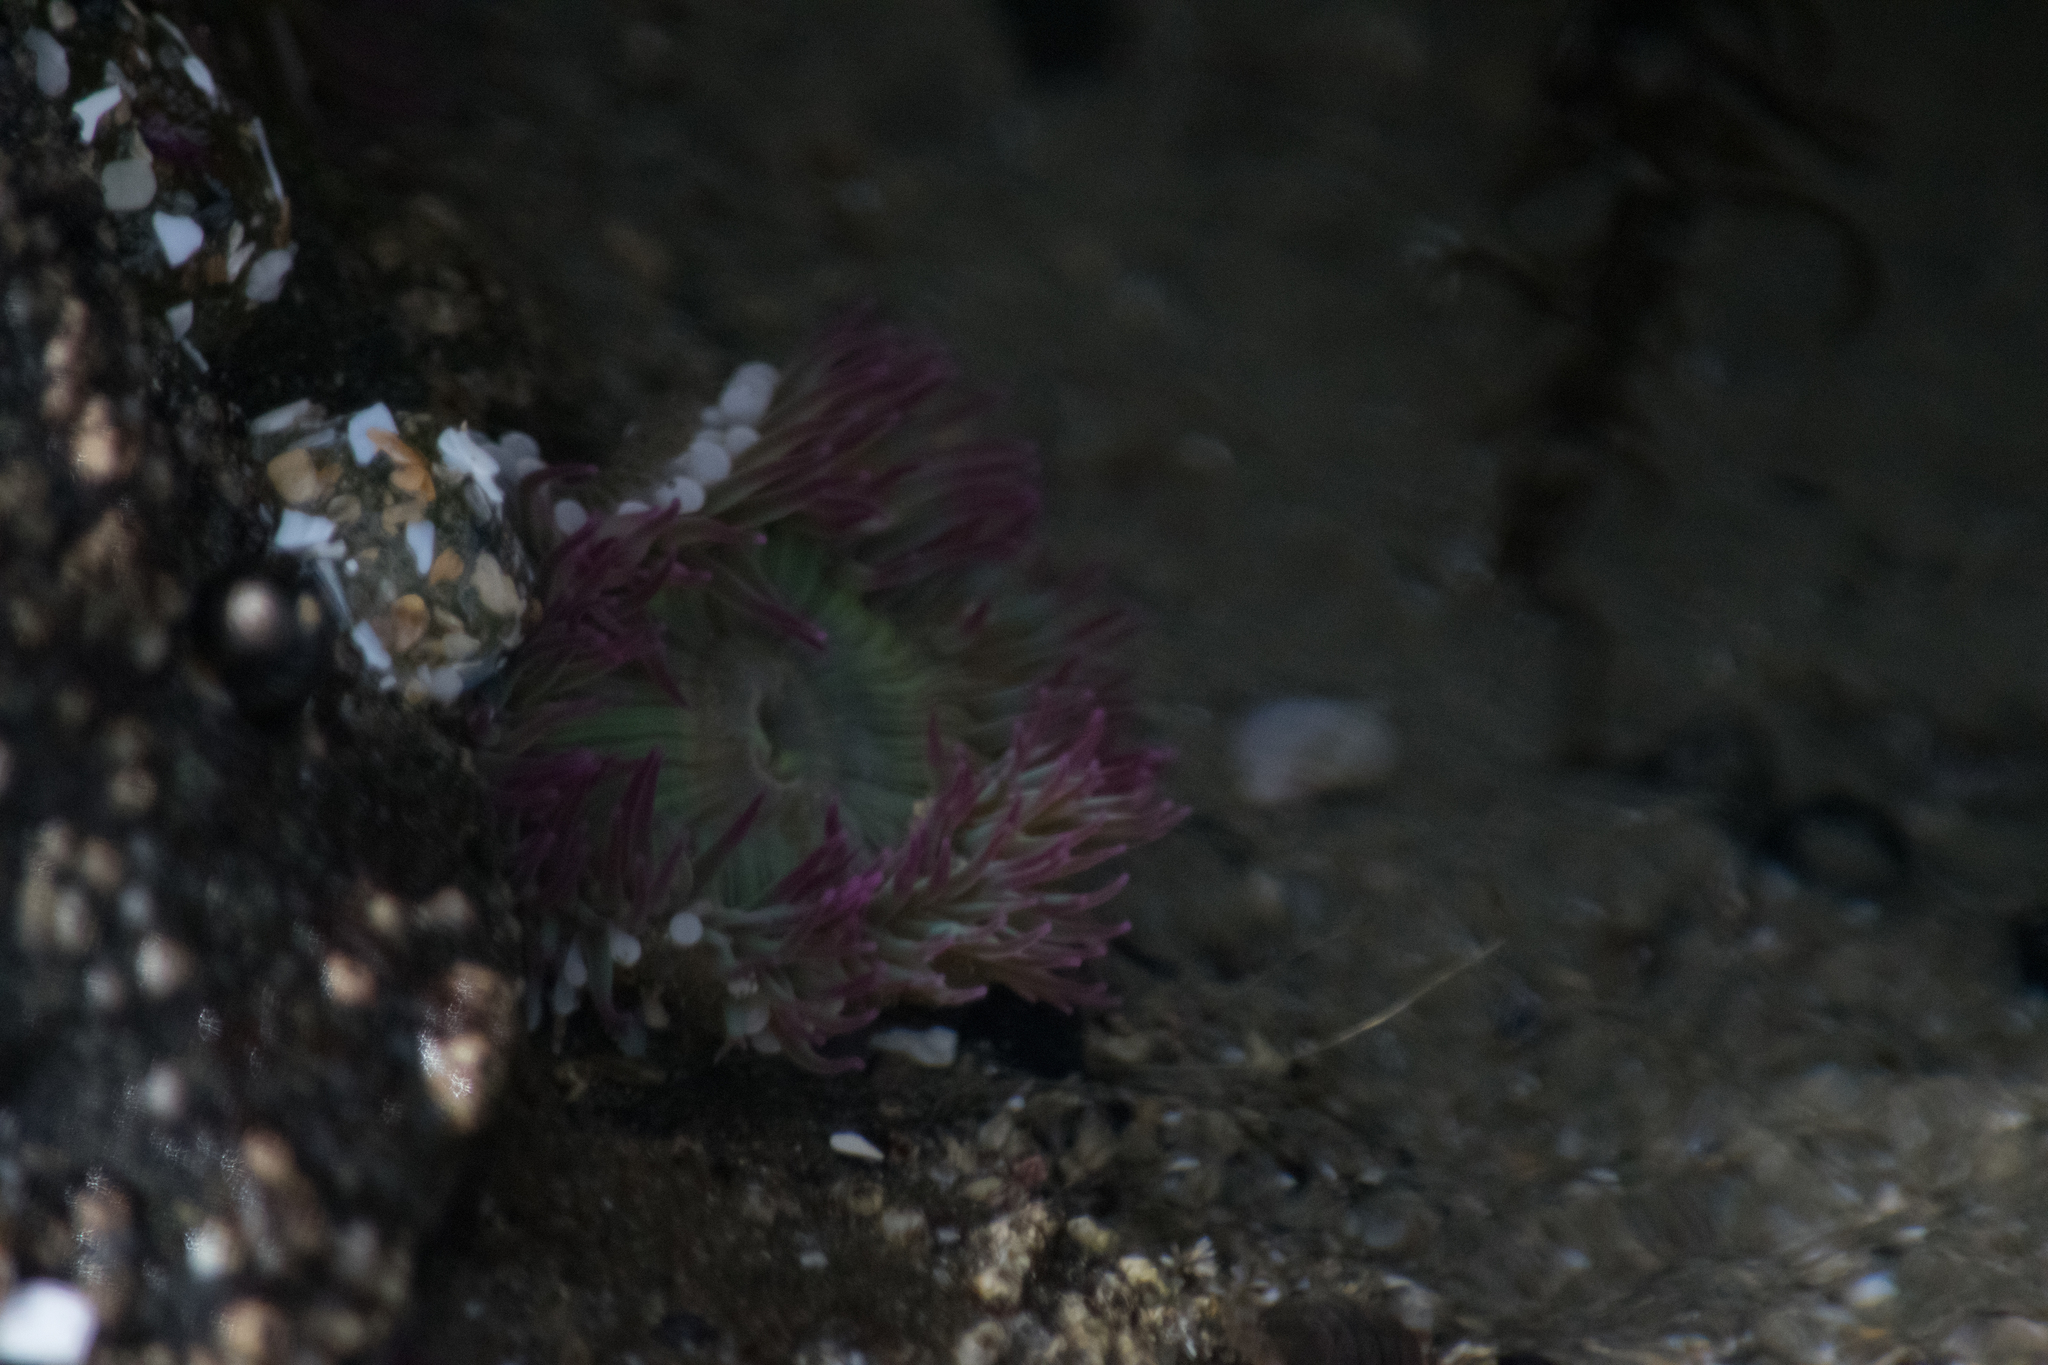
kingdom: Animalia
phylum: Cnidaria
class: Anthozoa
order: Actiniaria
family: Actiniidae
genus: Anthopleura
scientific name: Anthopleura elegantissima
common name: Clonal anemone
